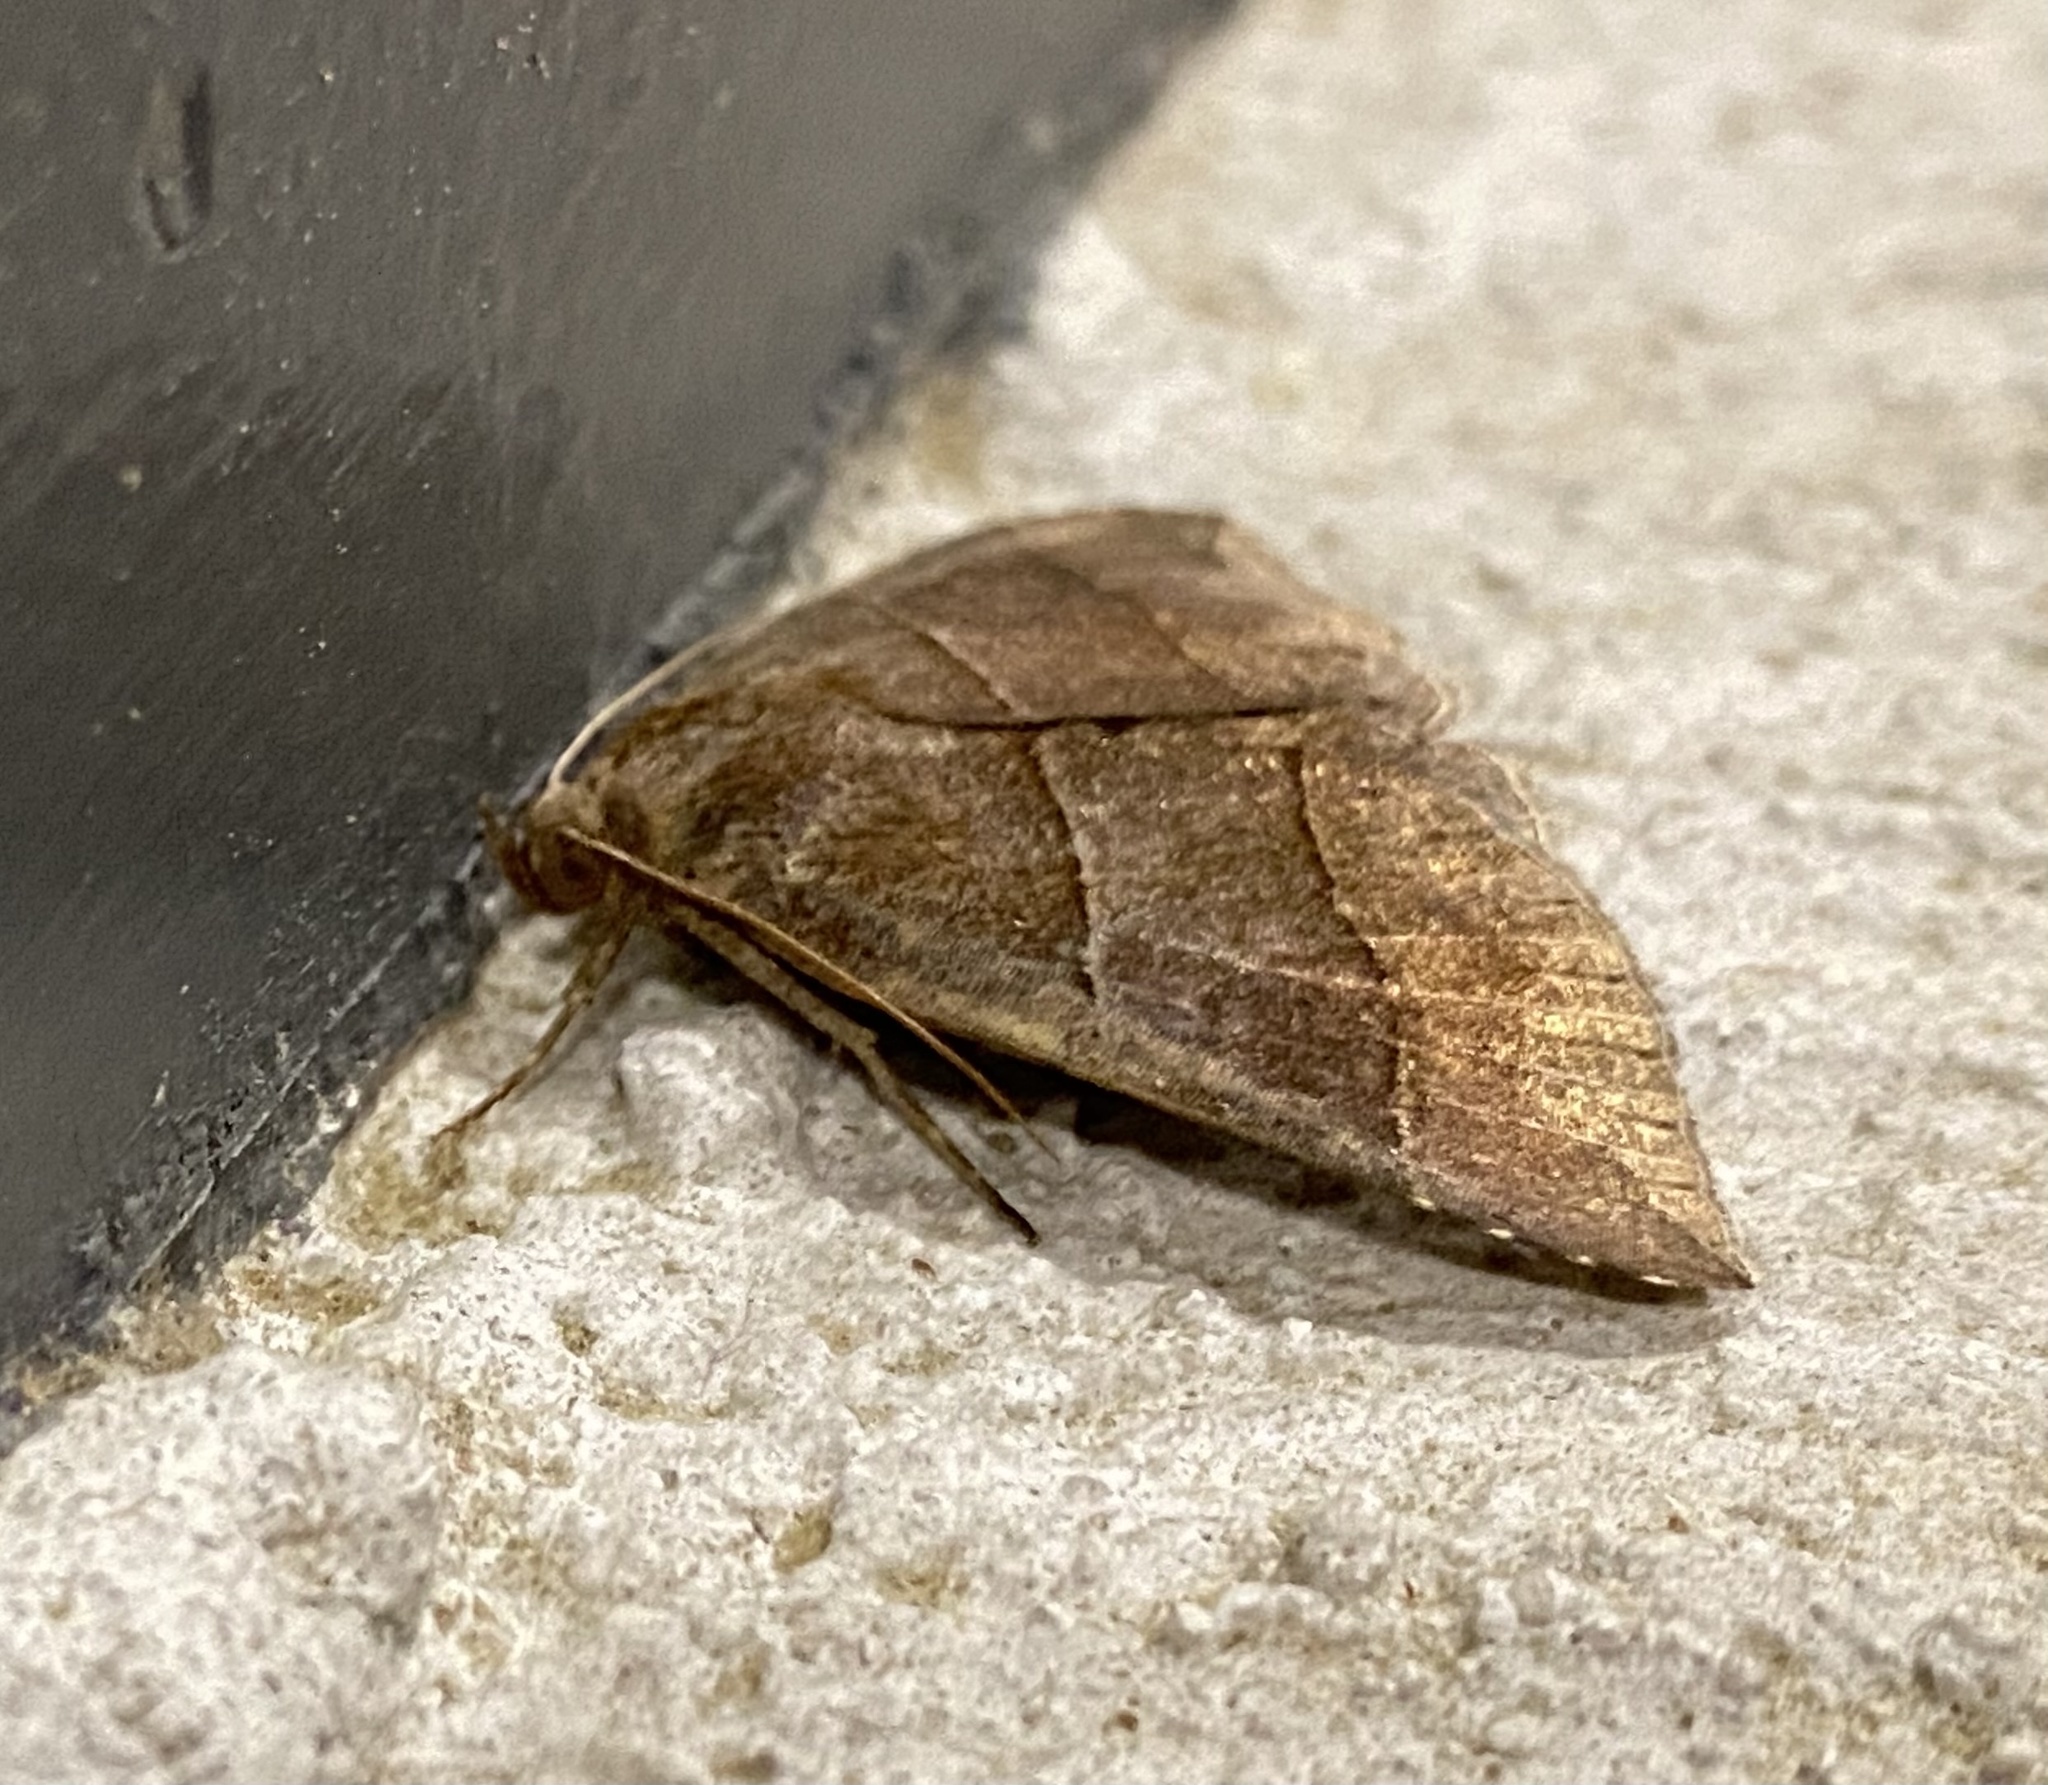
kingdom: Animalia
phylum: Arthropoda
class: Insecta
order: Lepidoptera
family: Erebidae
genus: Parallelia
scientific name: Parallelia bistriaris
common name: Maple looper moth
